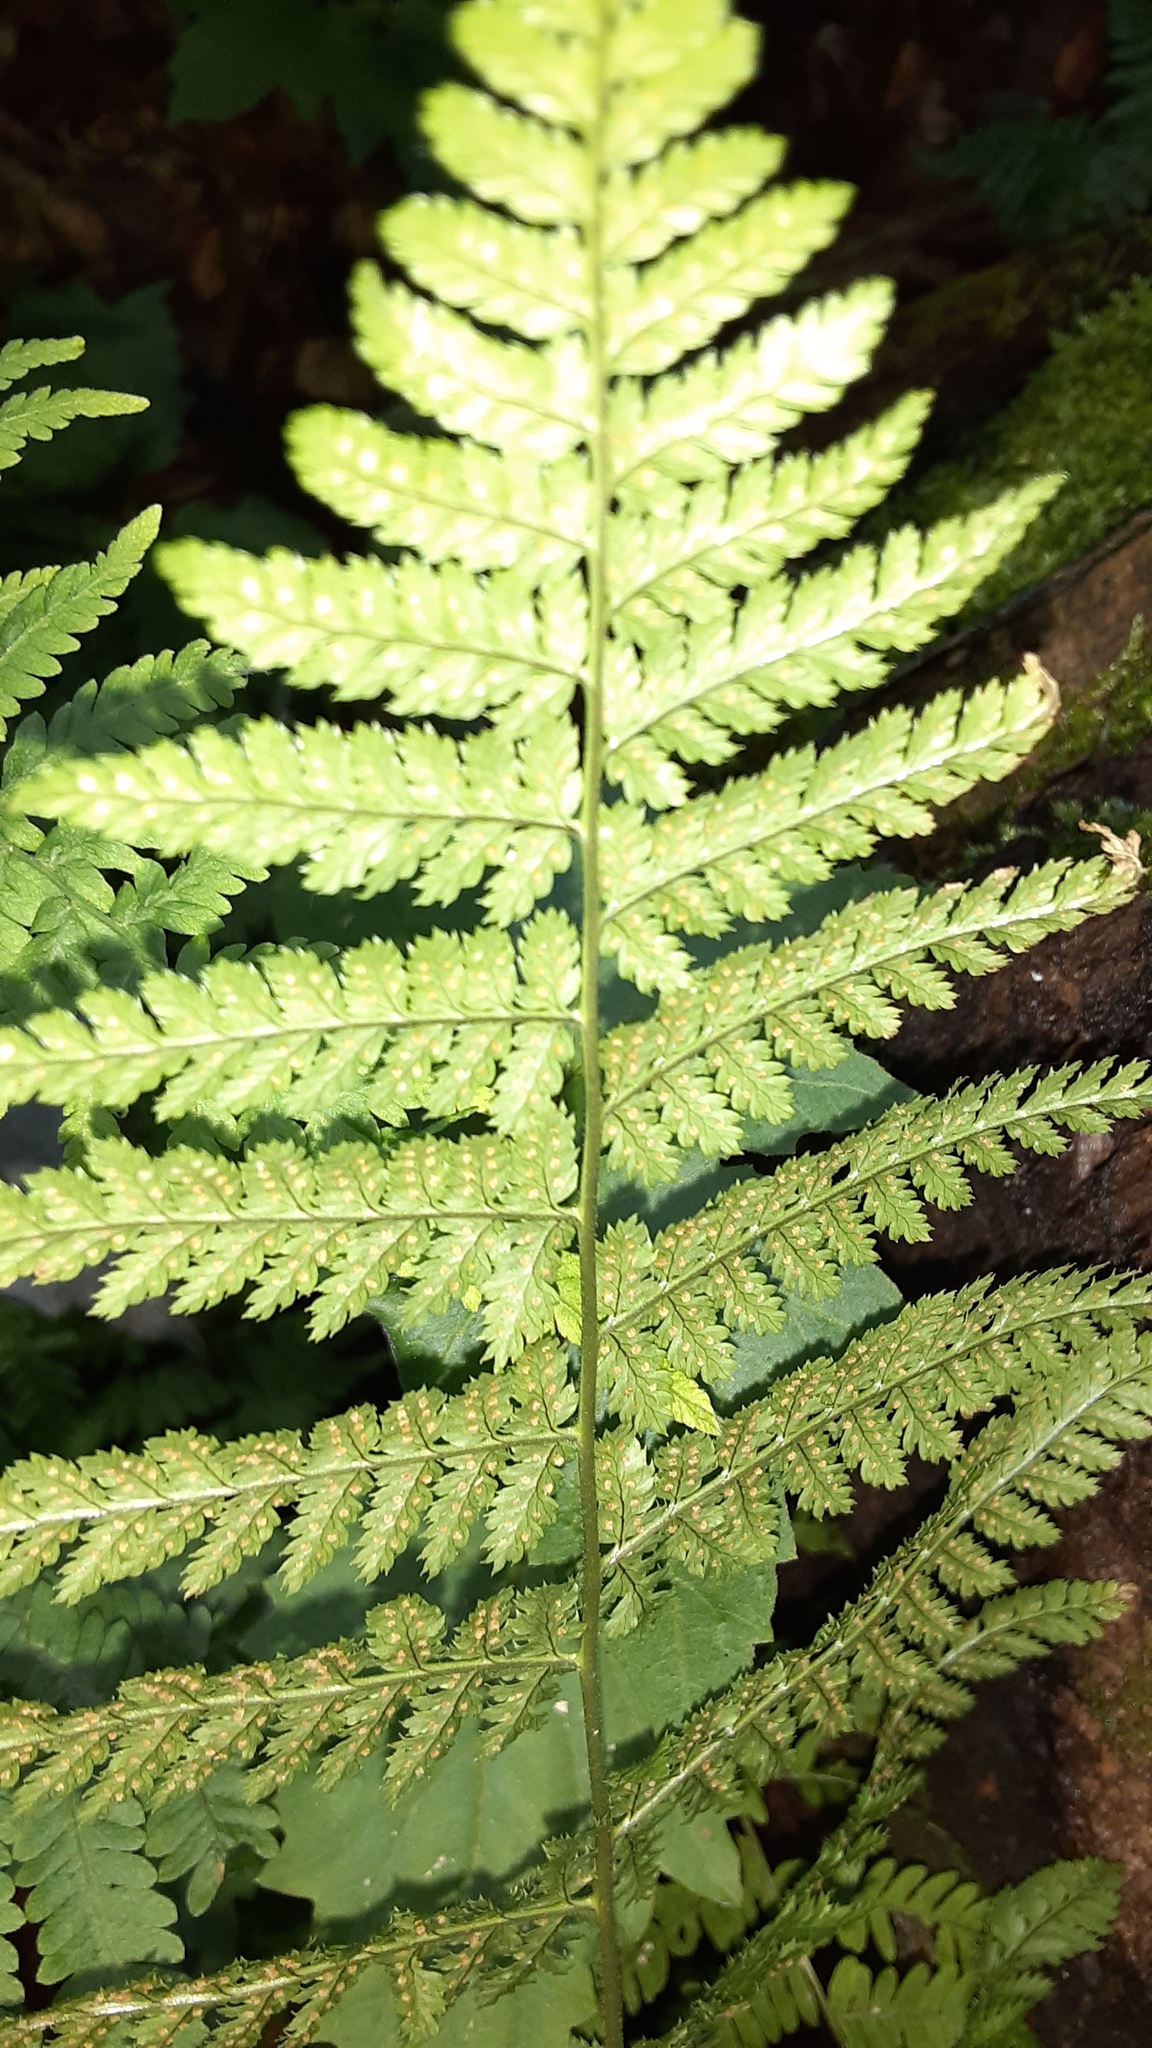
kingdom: Plantae
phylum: Tracheophyta
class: Polypodiopsida
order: Polypodiales
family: Dryopteridaceae
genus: Dryopteris
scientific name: Dryopteris intermedia
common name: Evergreen wood fern
